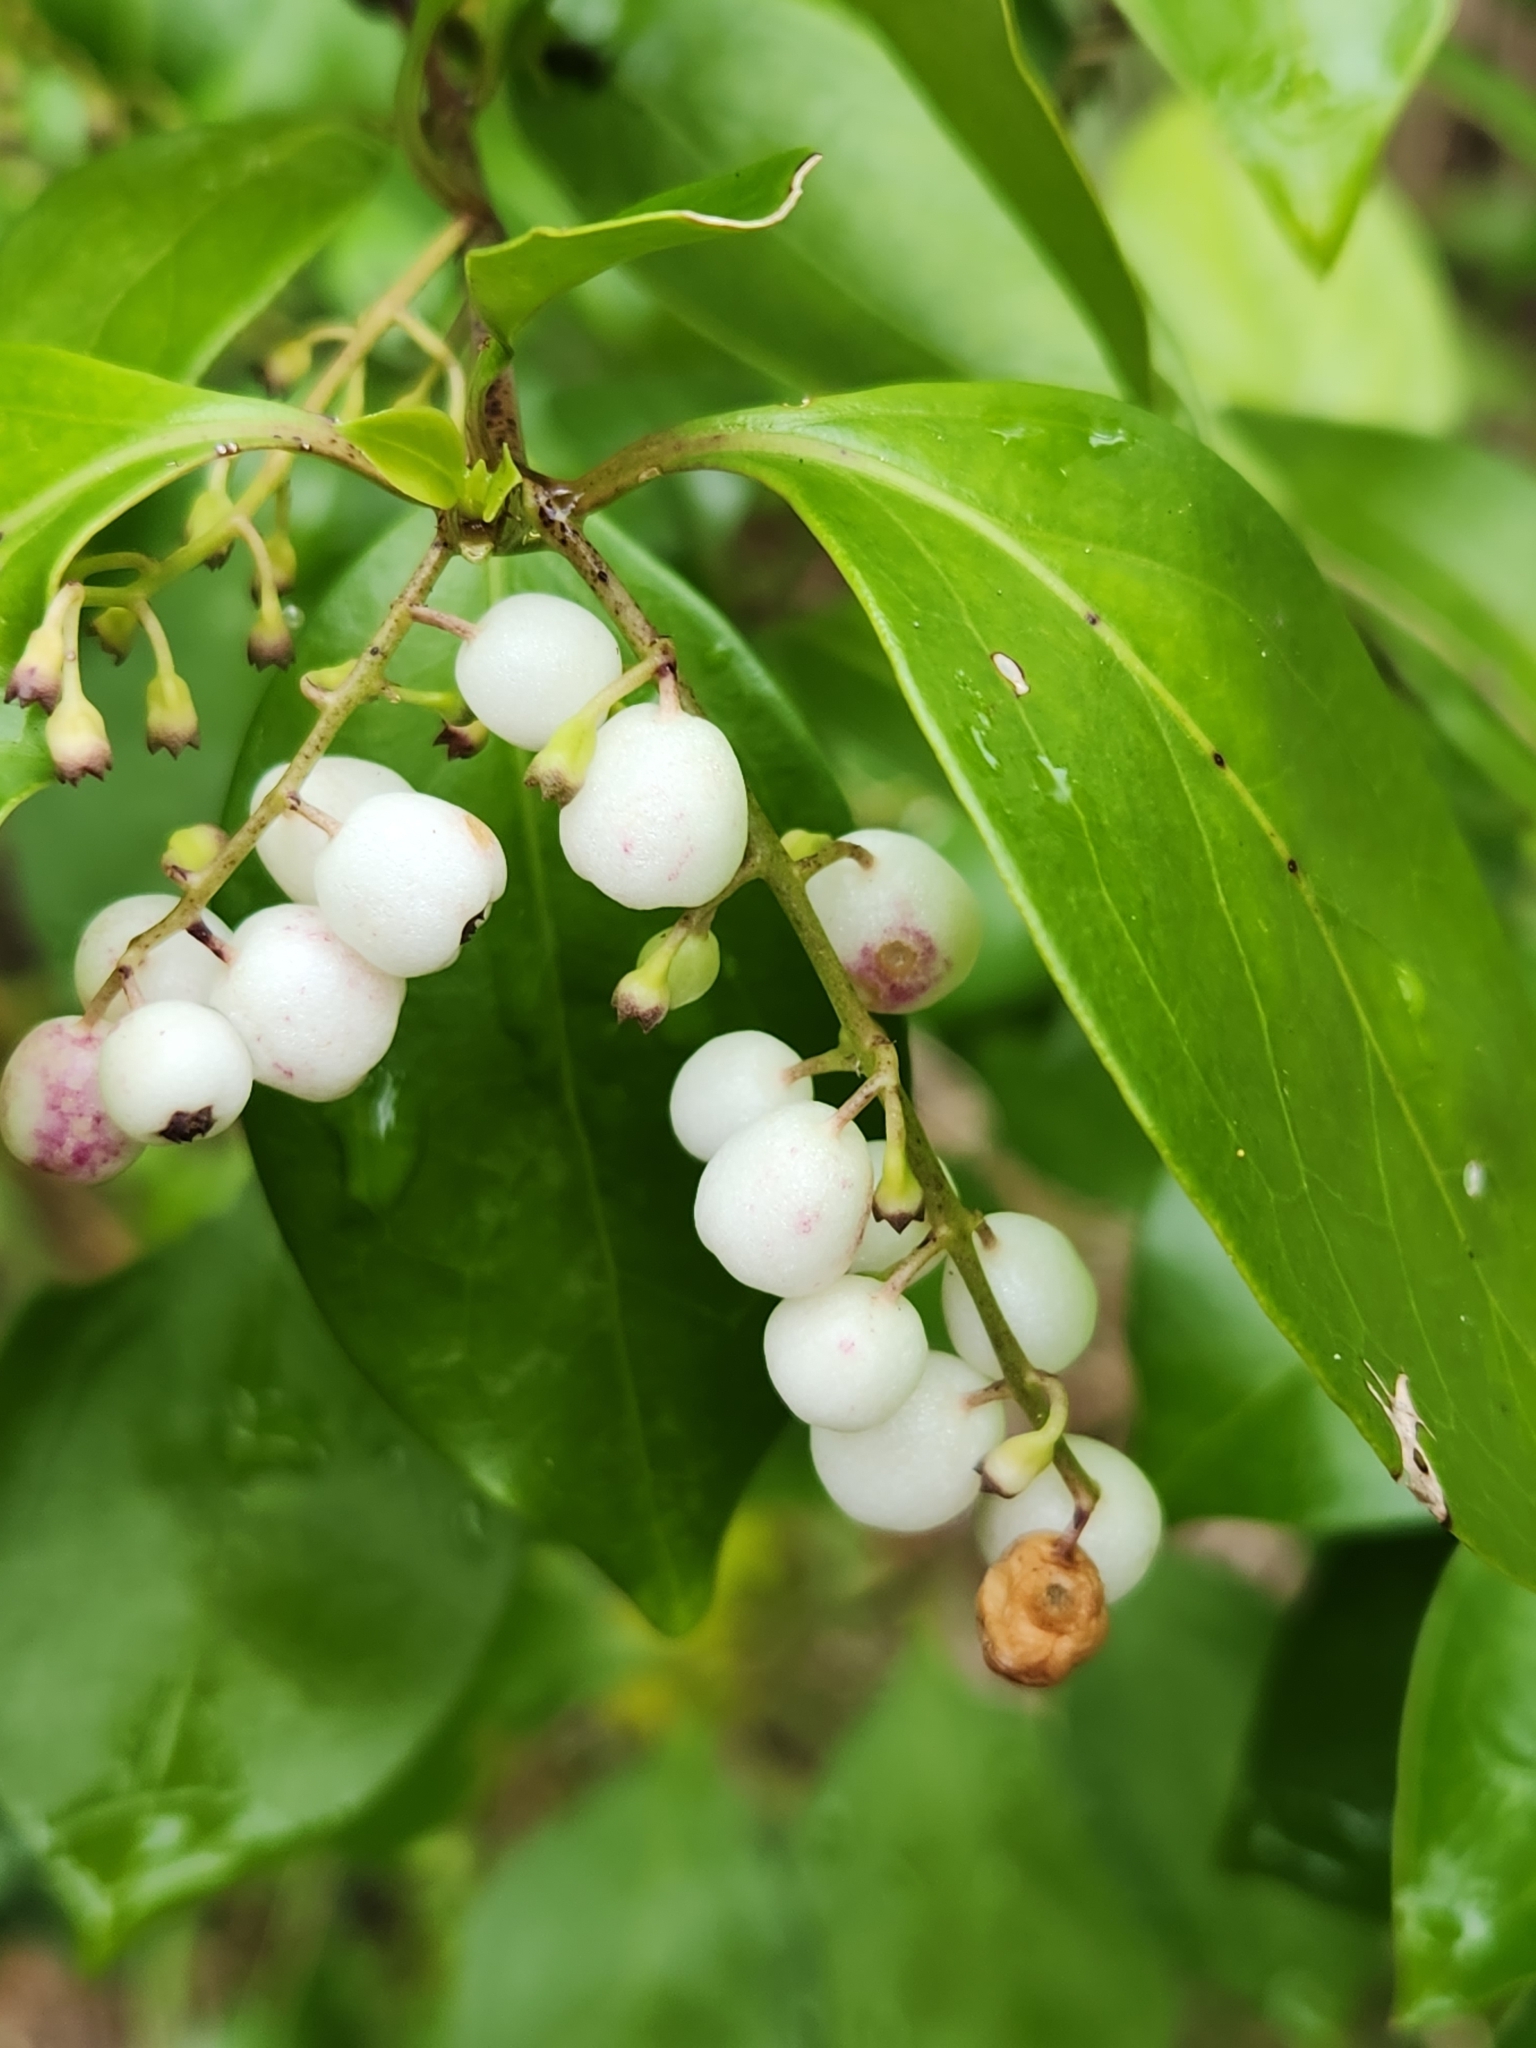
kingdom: Plantae
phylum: Tracheophyta
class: Magnoliopsida
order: Gentianales
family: Rubiaceae
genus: Chiococca
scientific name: Chiococca alba
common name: Snowberry
